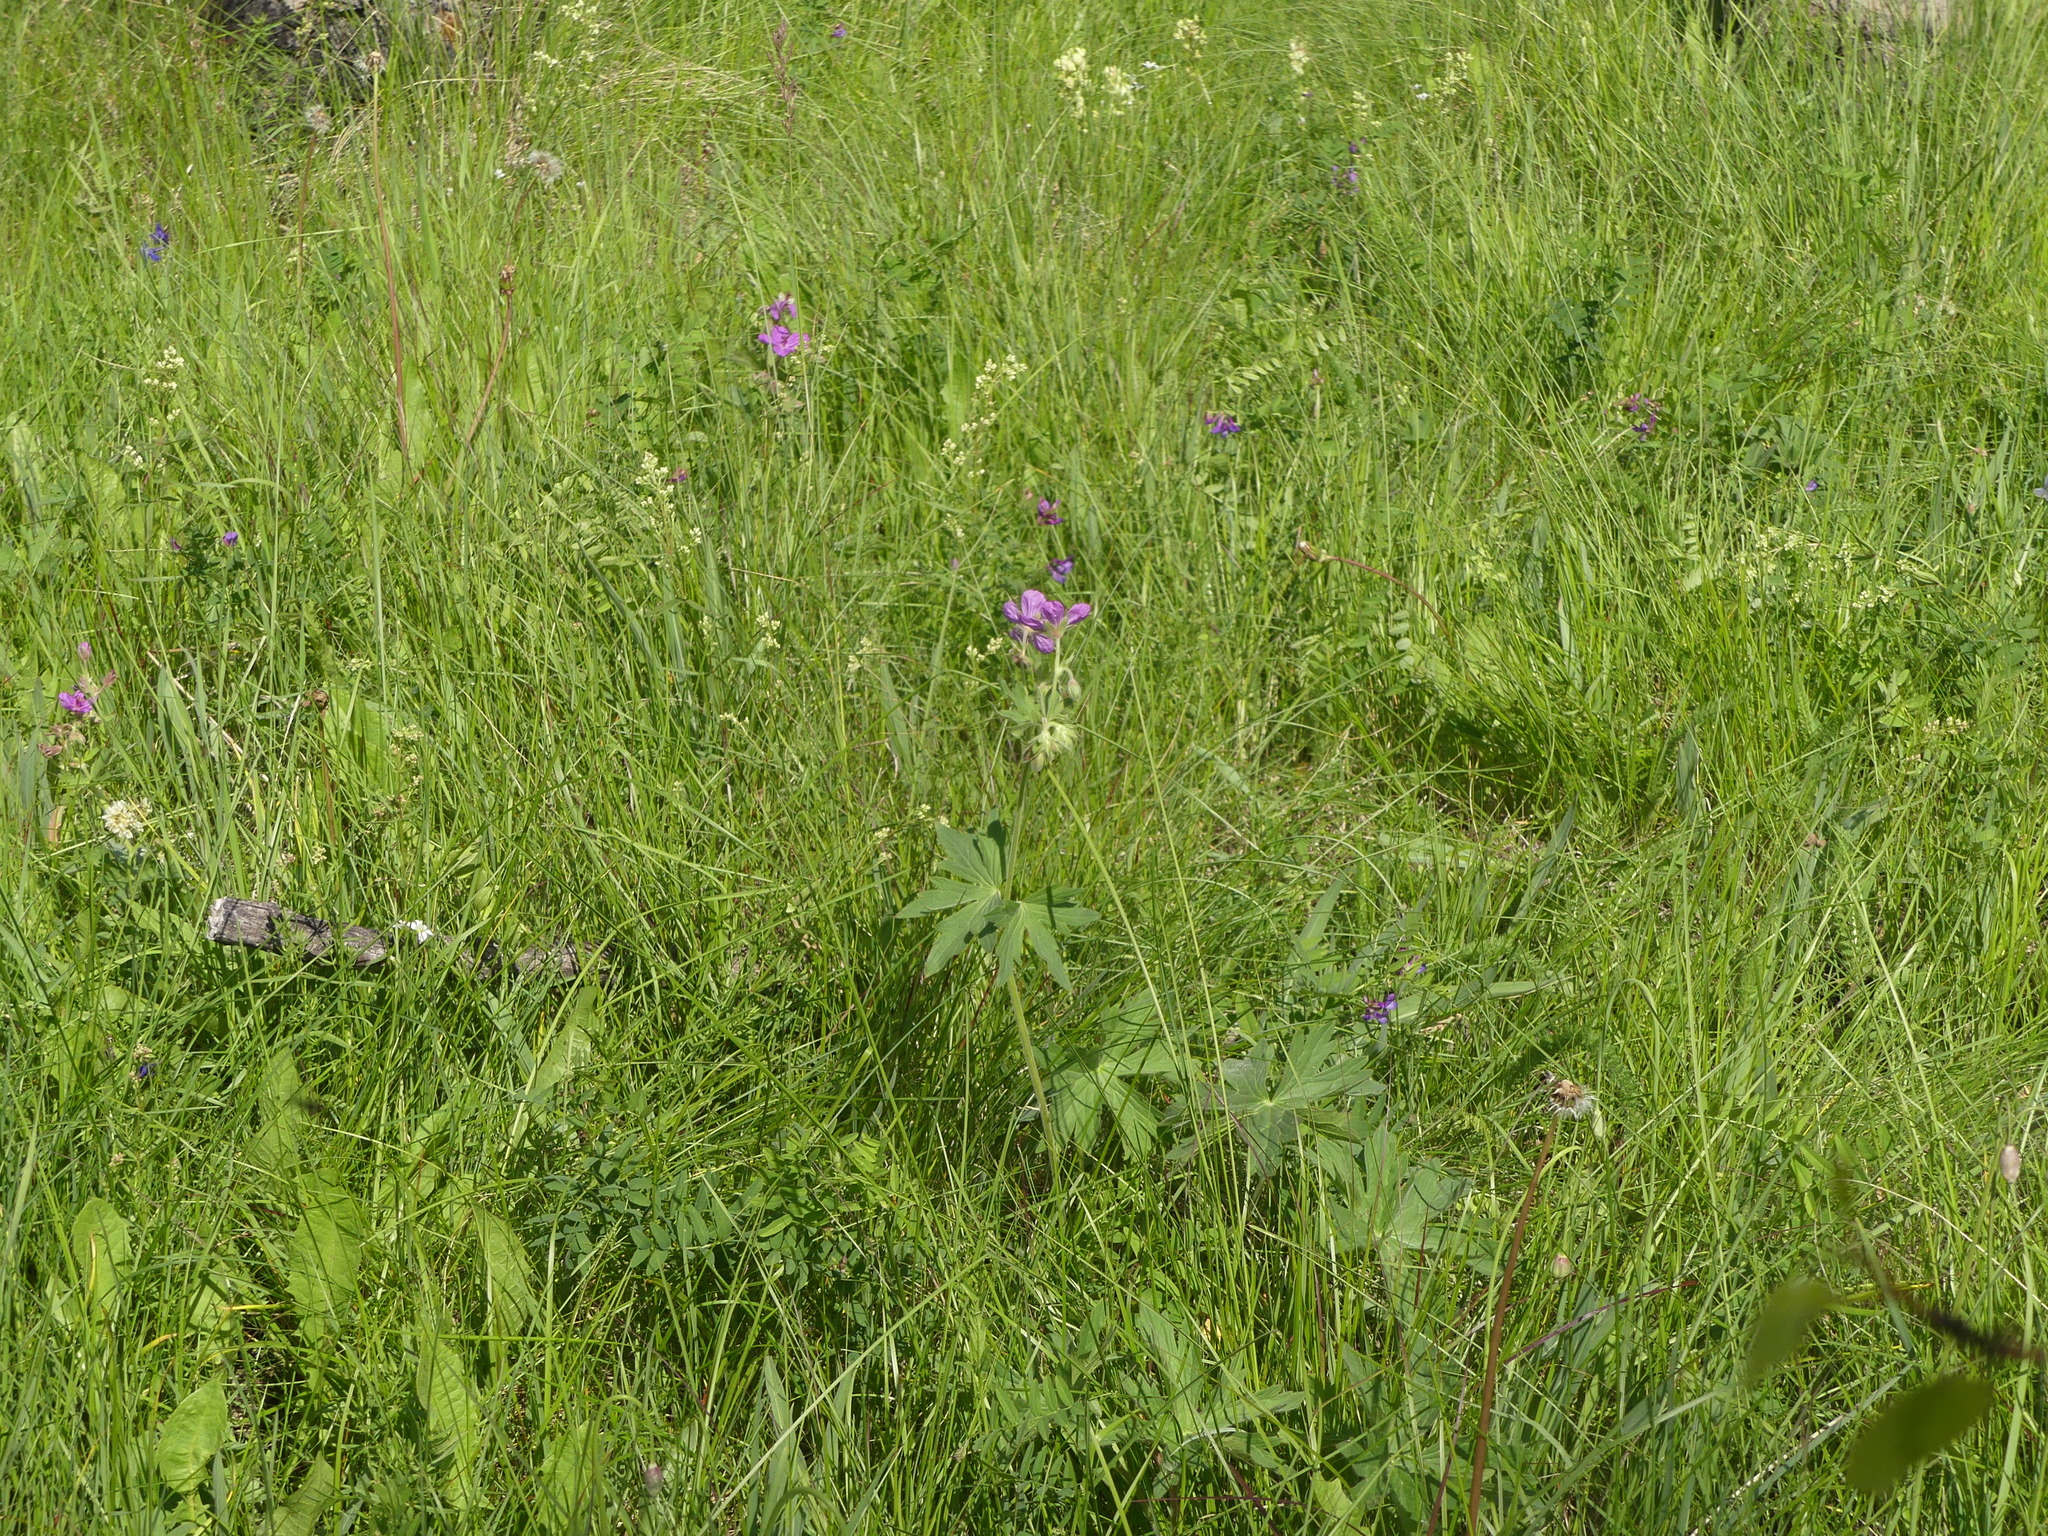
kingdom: Plantae
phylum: Tracheophyta
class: Magnoliopsida
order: Geraniales
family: Geraniaceae
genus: Geranium
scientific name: Geranium viscosissimum
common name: Purple geranium
